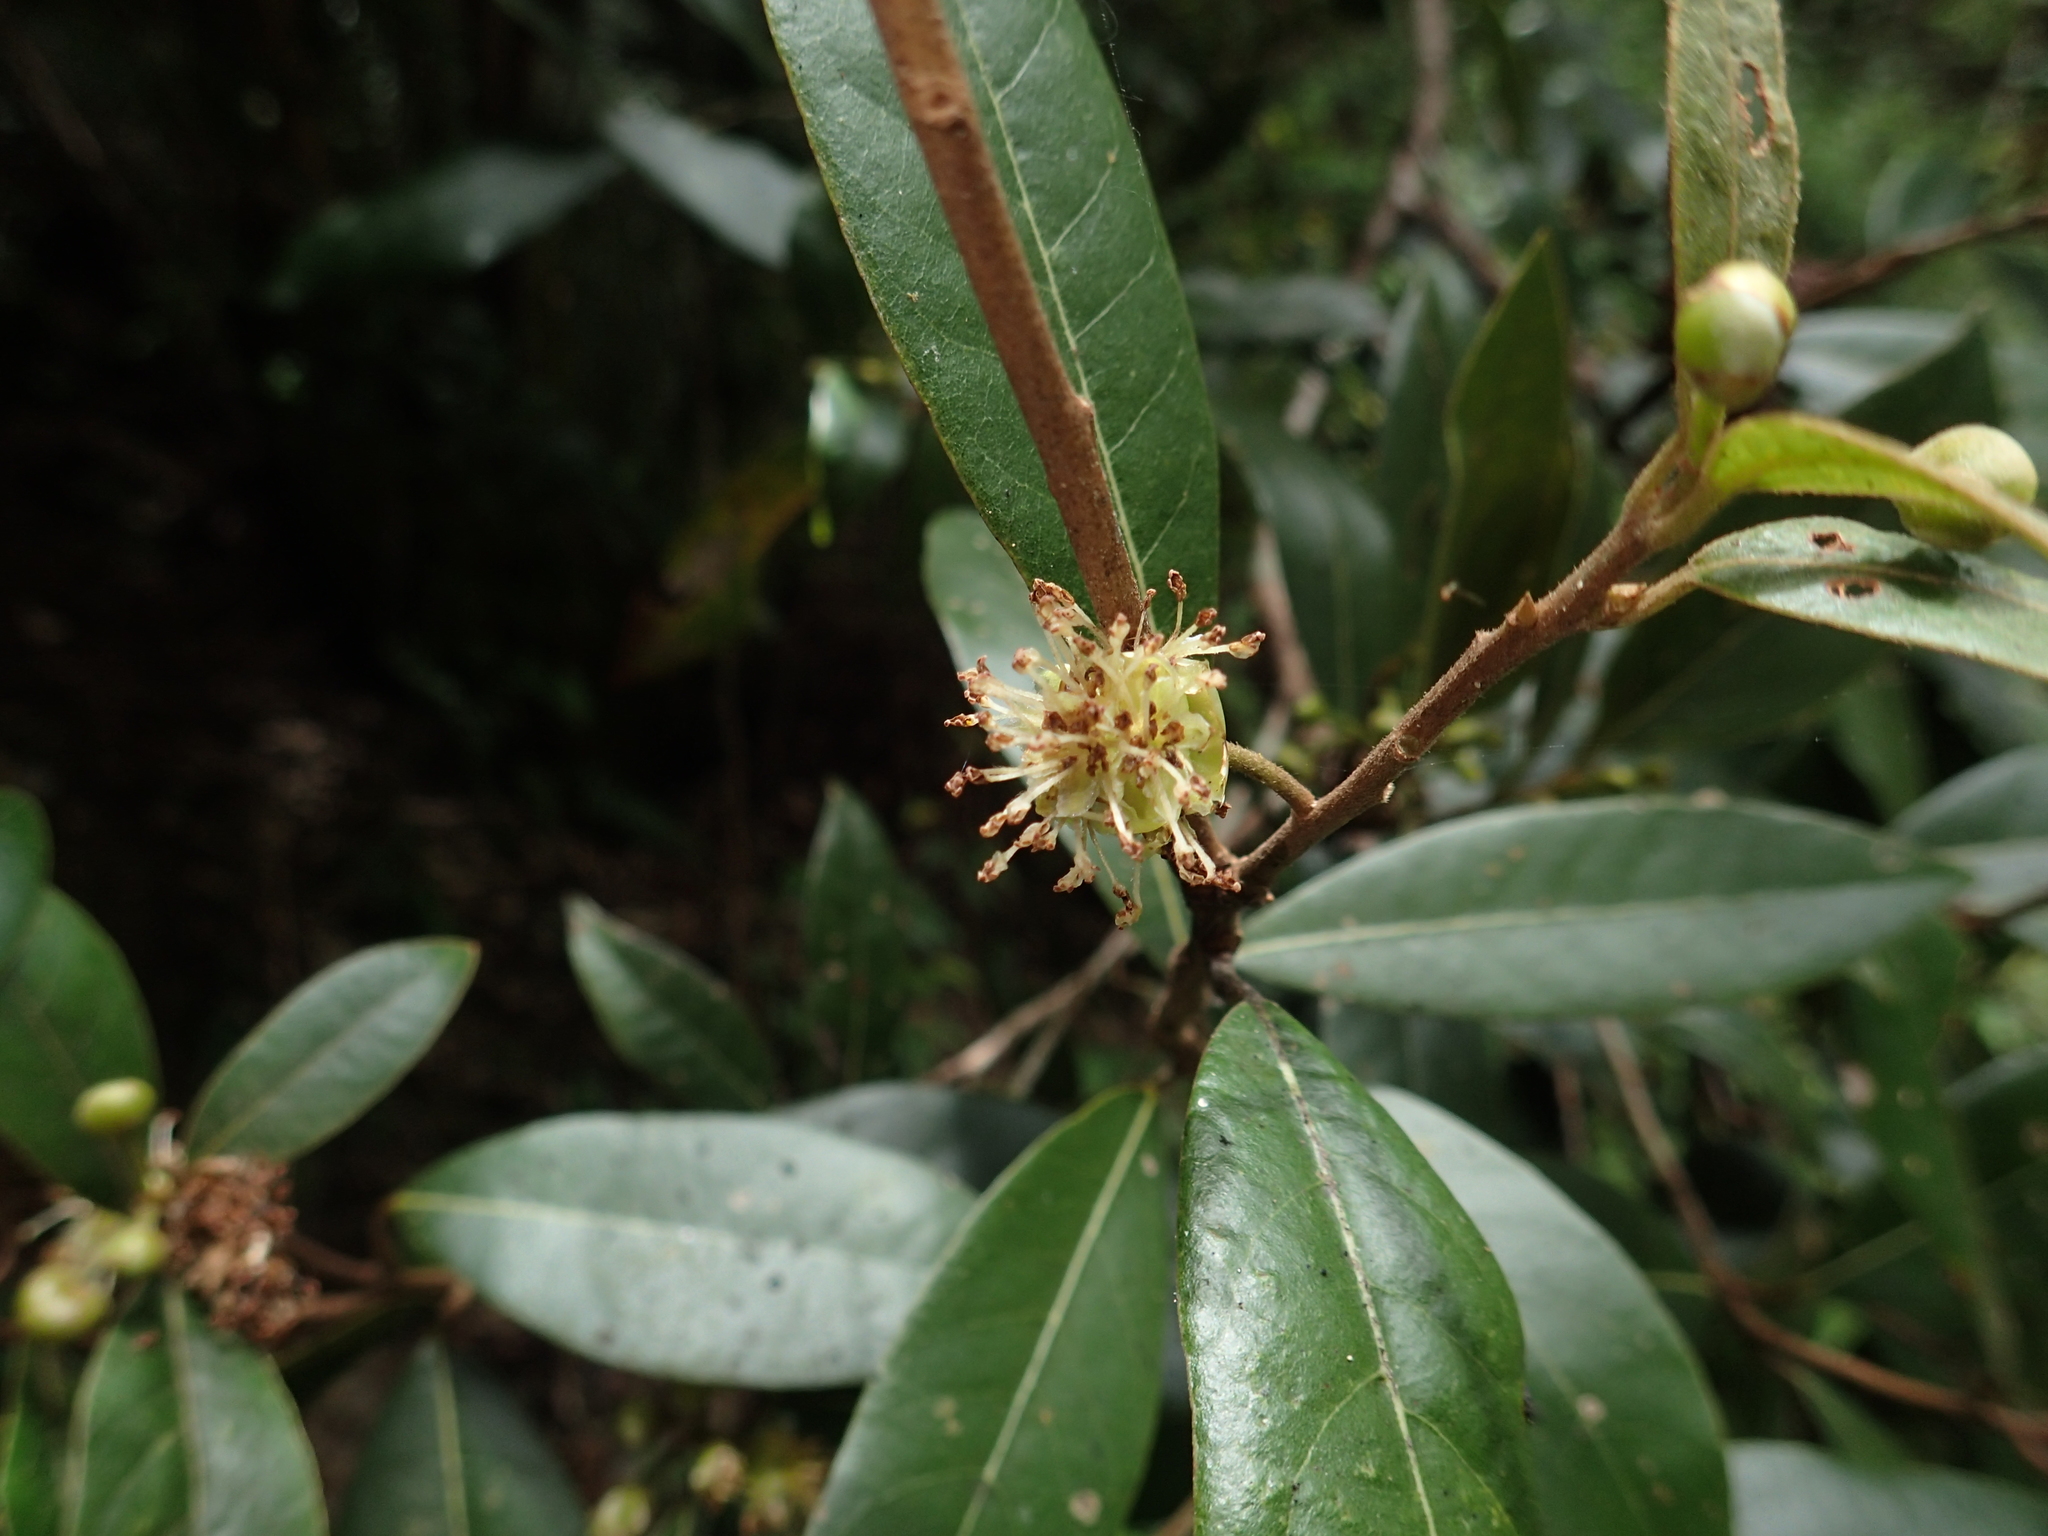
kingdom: Plantae
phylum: Tracheophyta
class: Magnoliopsida
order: Laurales
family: Lauraceae
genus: Litsea
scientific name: Litsea morrisonensis
